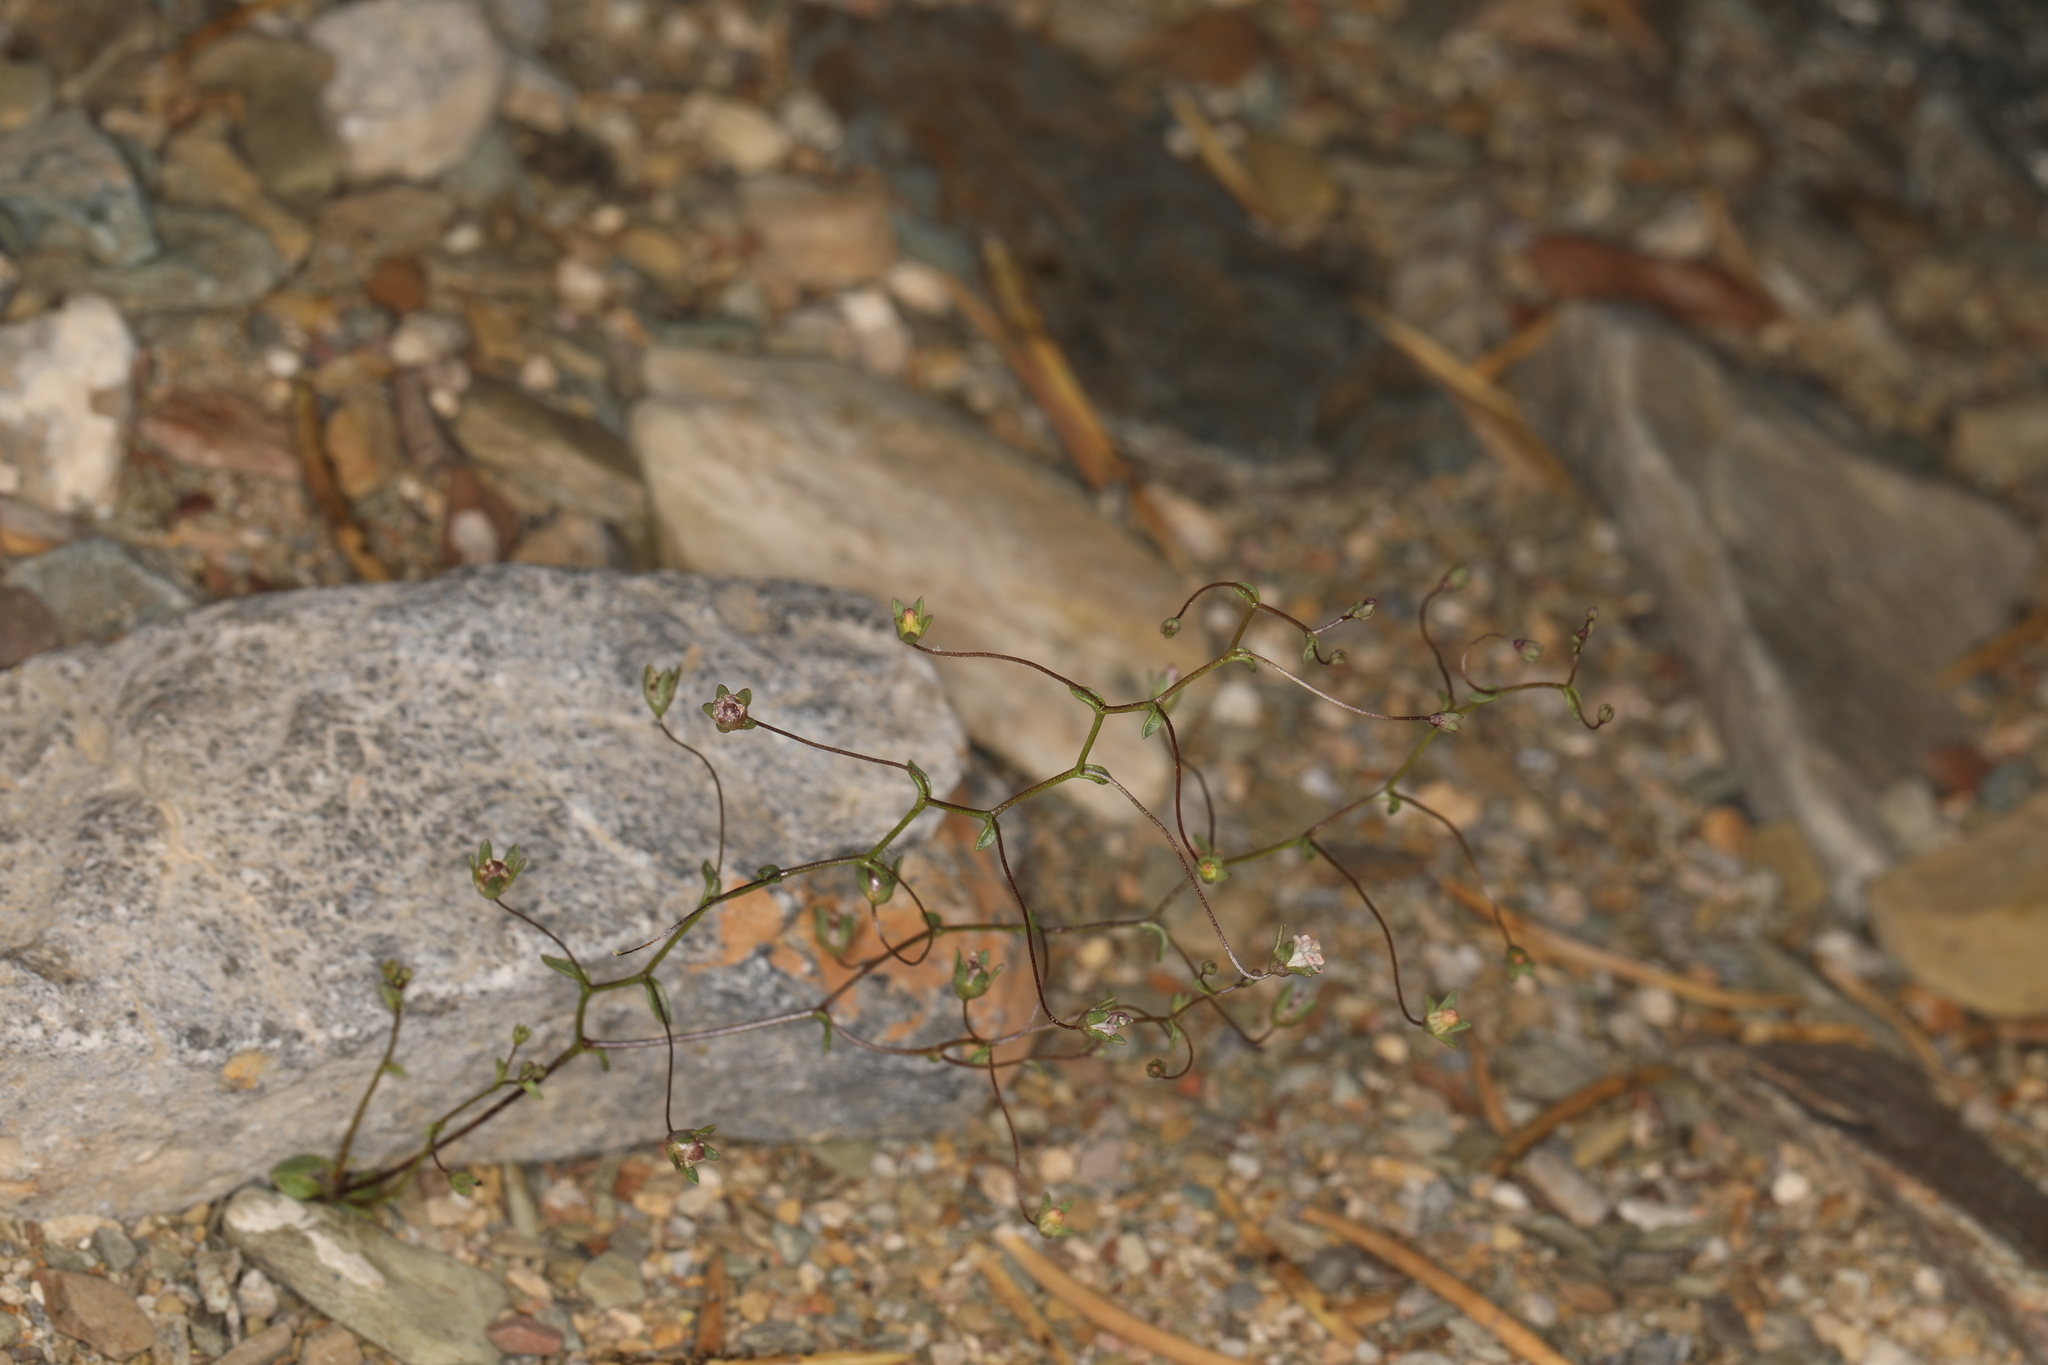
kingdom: Plantae
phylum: Tracheophyta
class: Magnoliopsida
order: Asterales
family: Campanulaceae
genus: Nemacladus
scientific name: Nemacladus inyoensis
